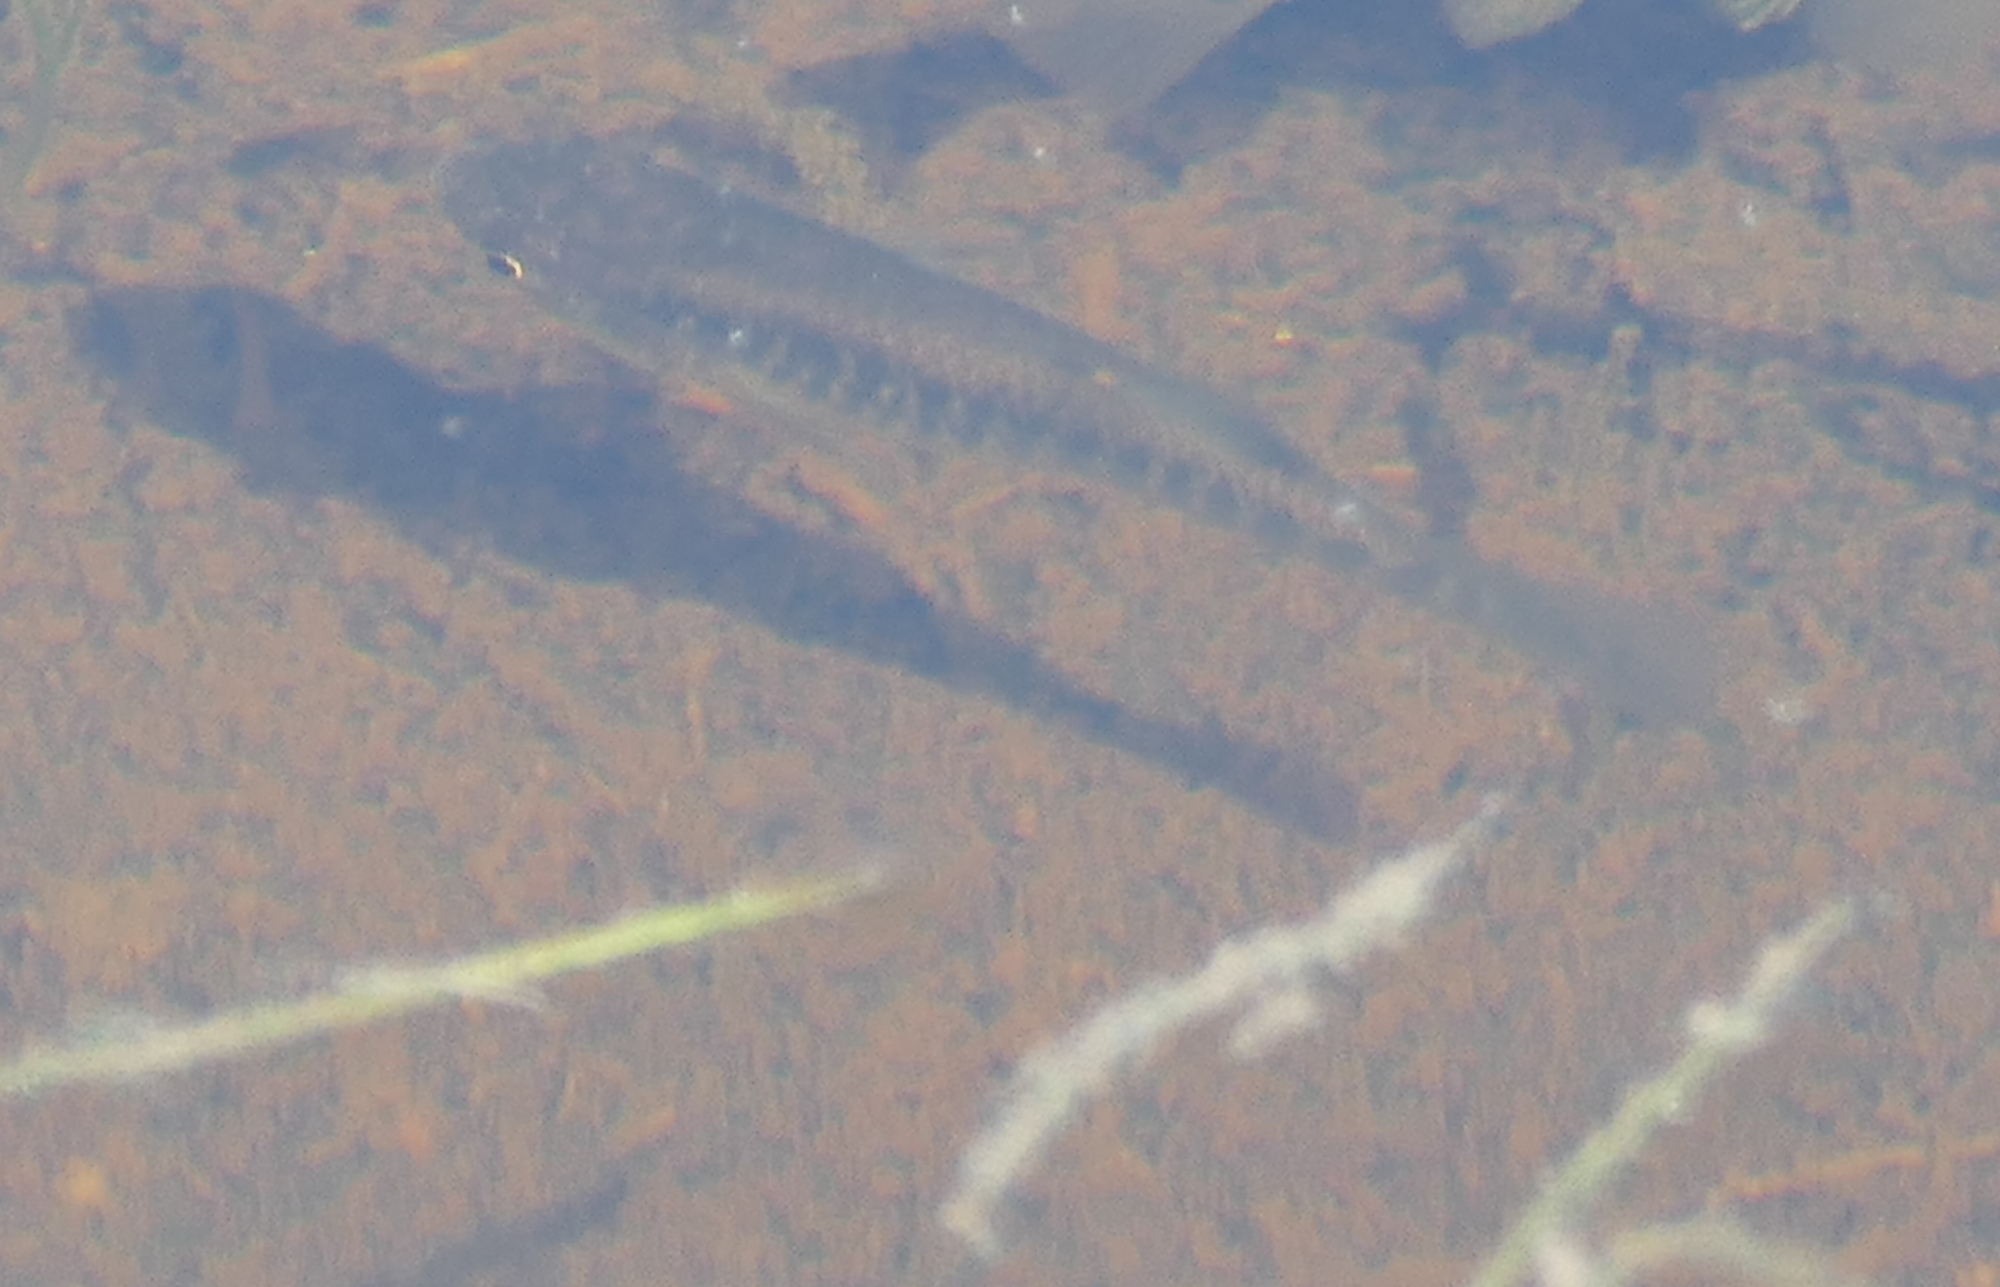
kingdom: Animalia
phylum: Chordata
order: Cyprinodontiformes
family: Fundulidae
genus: Fundulus
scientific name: Fundulus heteroclitus
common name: Mummichog
